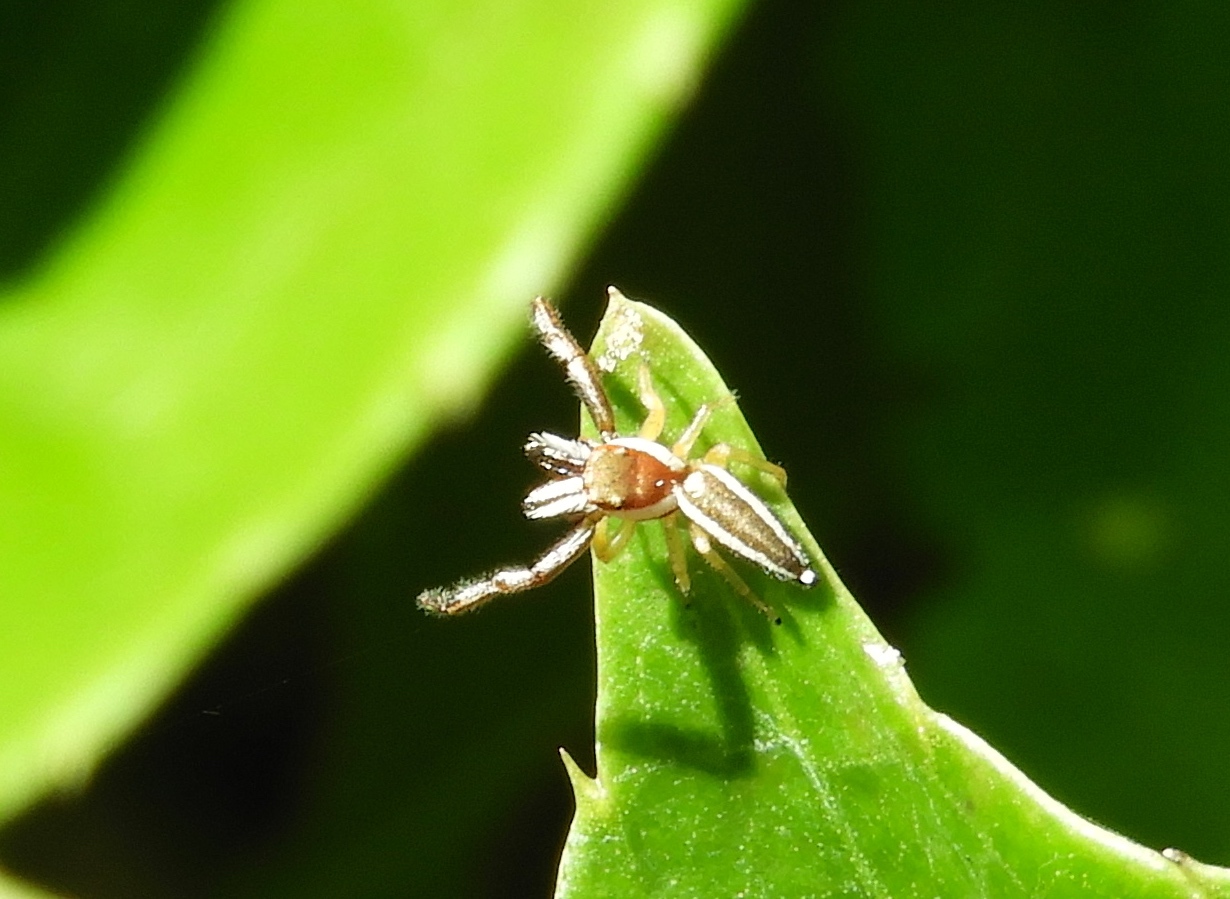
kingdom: Animalia
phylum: Arthropoda
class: Arachnida
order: Araneae
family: Salticidae
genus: Hentzia
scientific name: Hentzia palmarum
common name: Common hentz jumping spider
